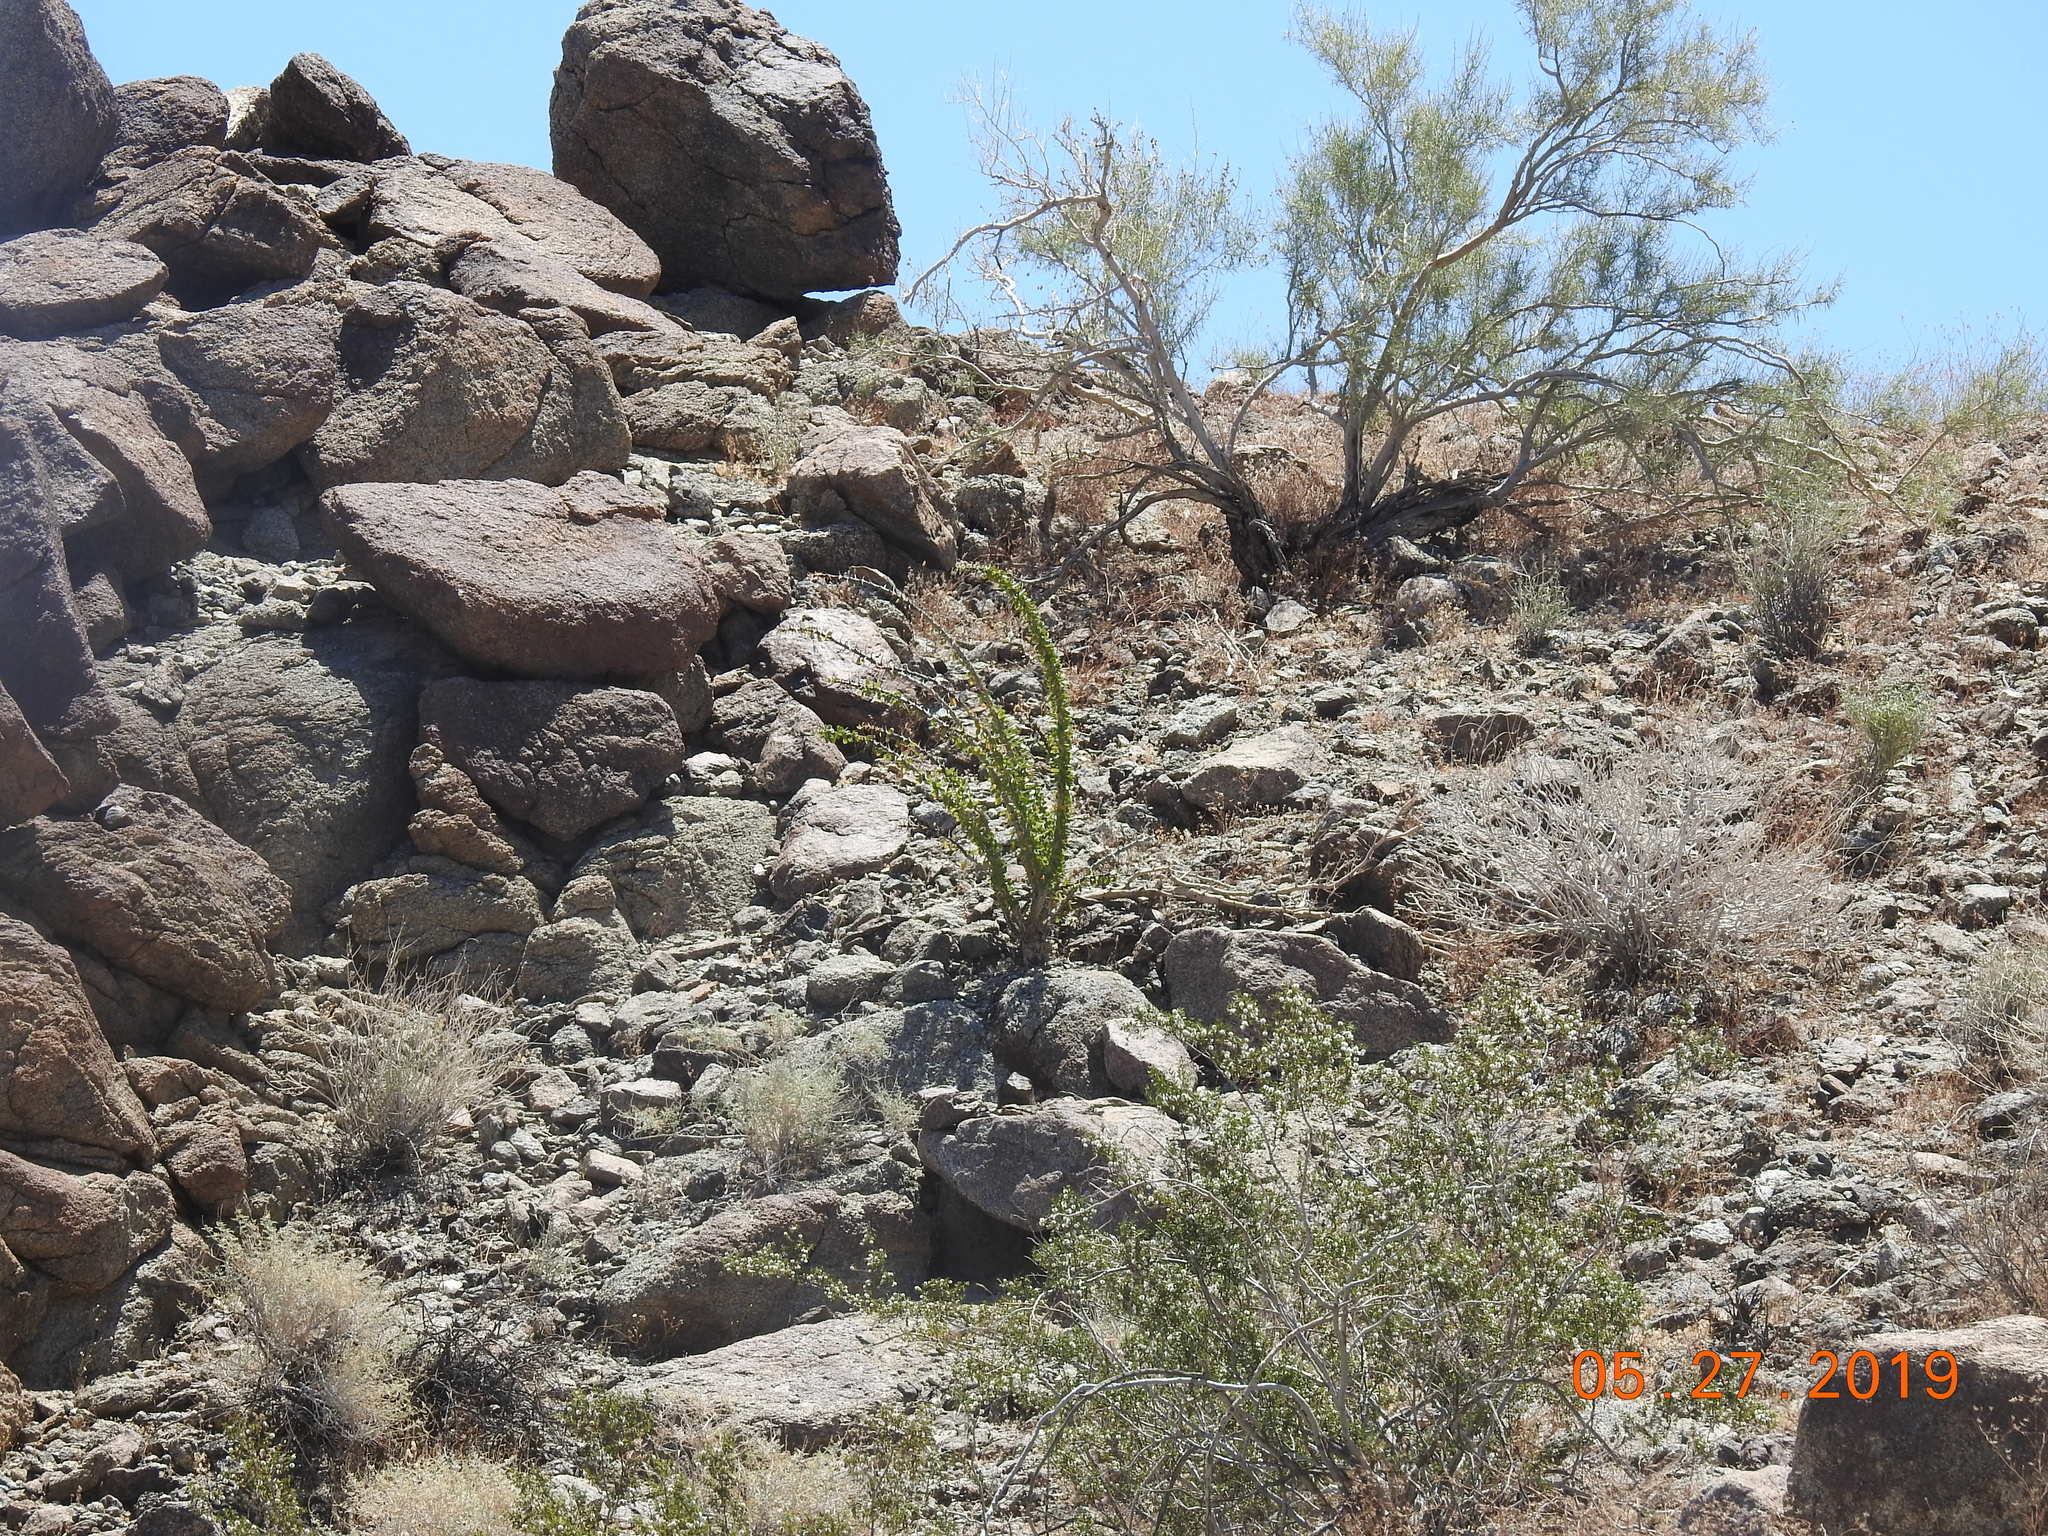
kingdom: Plantae
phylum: Tracheophyta
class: Magnoliopsida
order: Ericales
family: Fouquieriaceae
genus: Fouquieria
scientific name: Fouquieria splendens
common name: Vine-cactus
